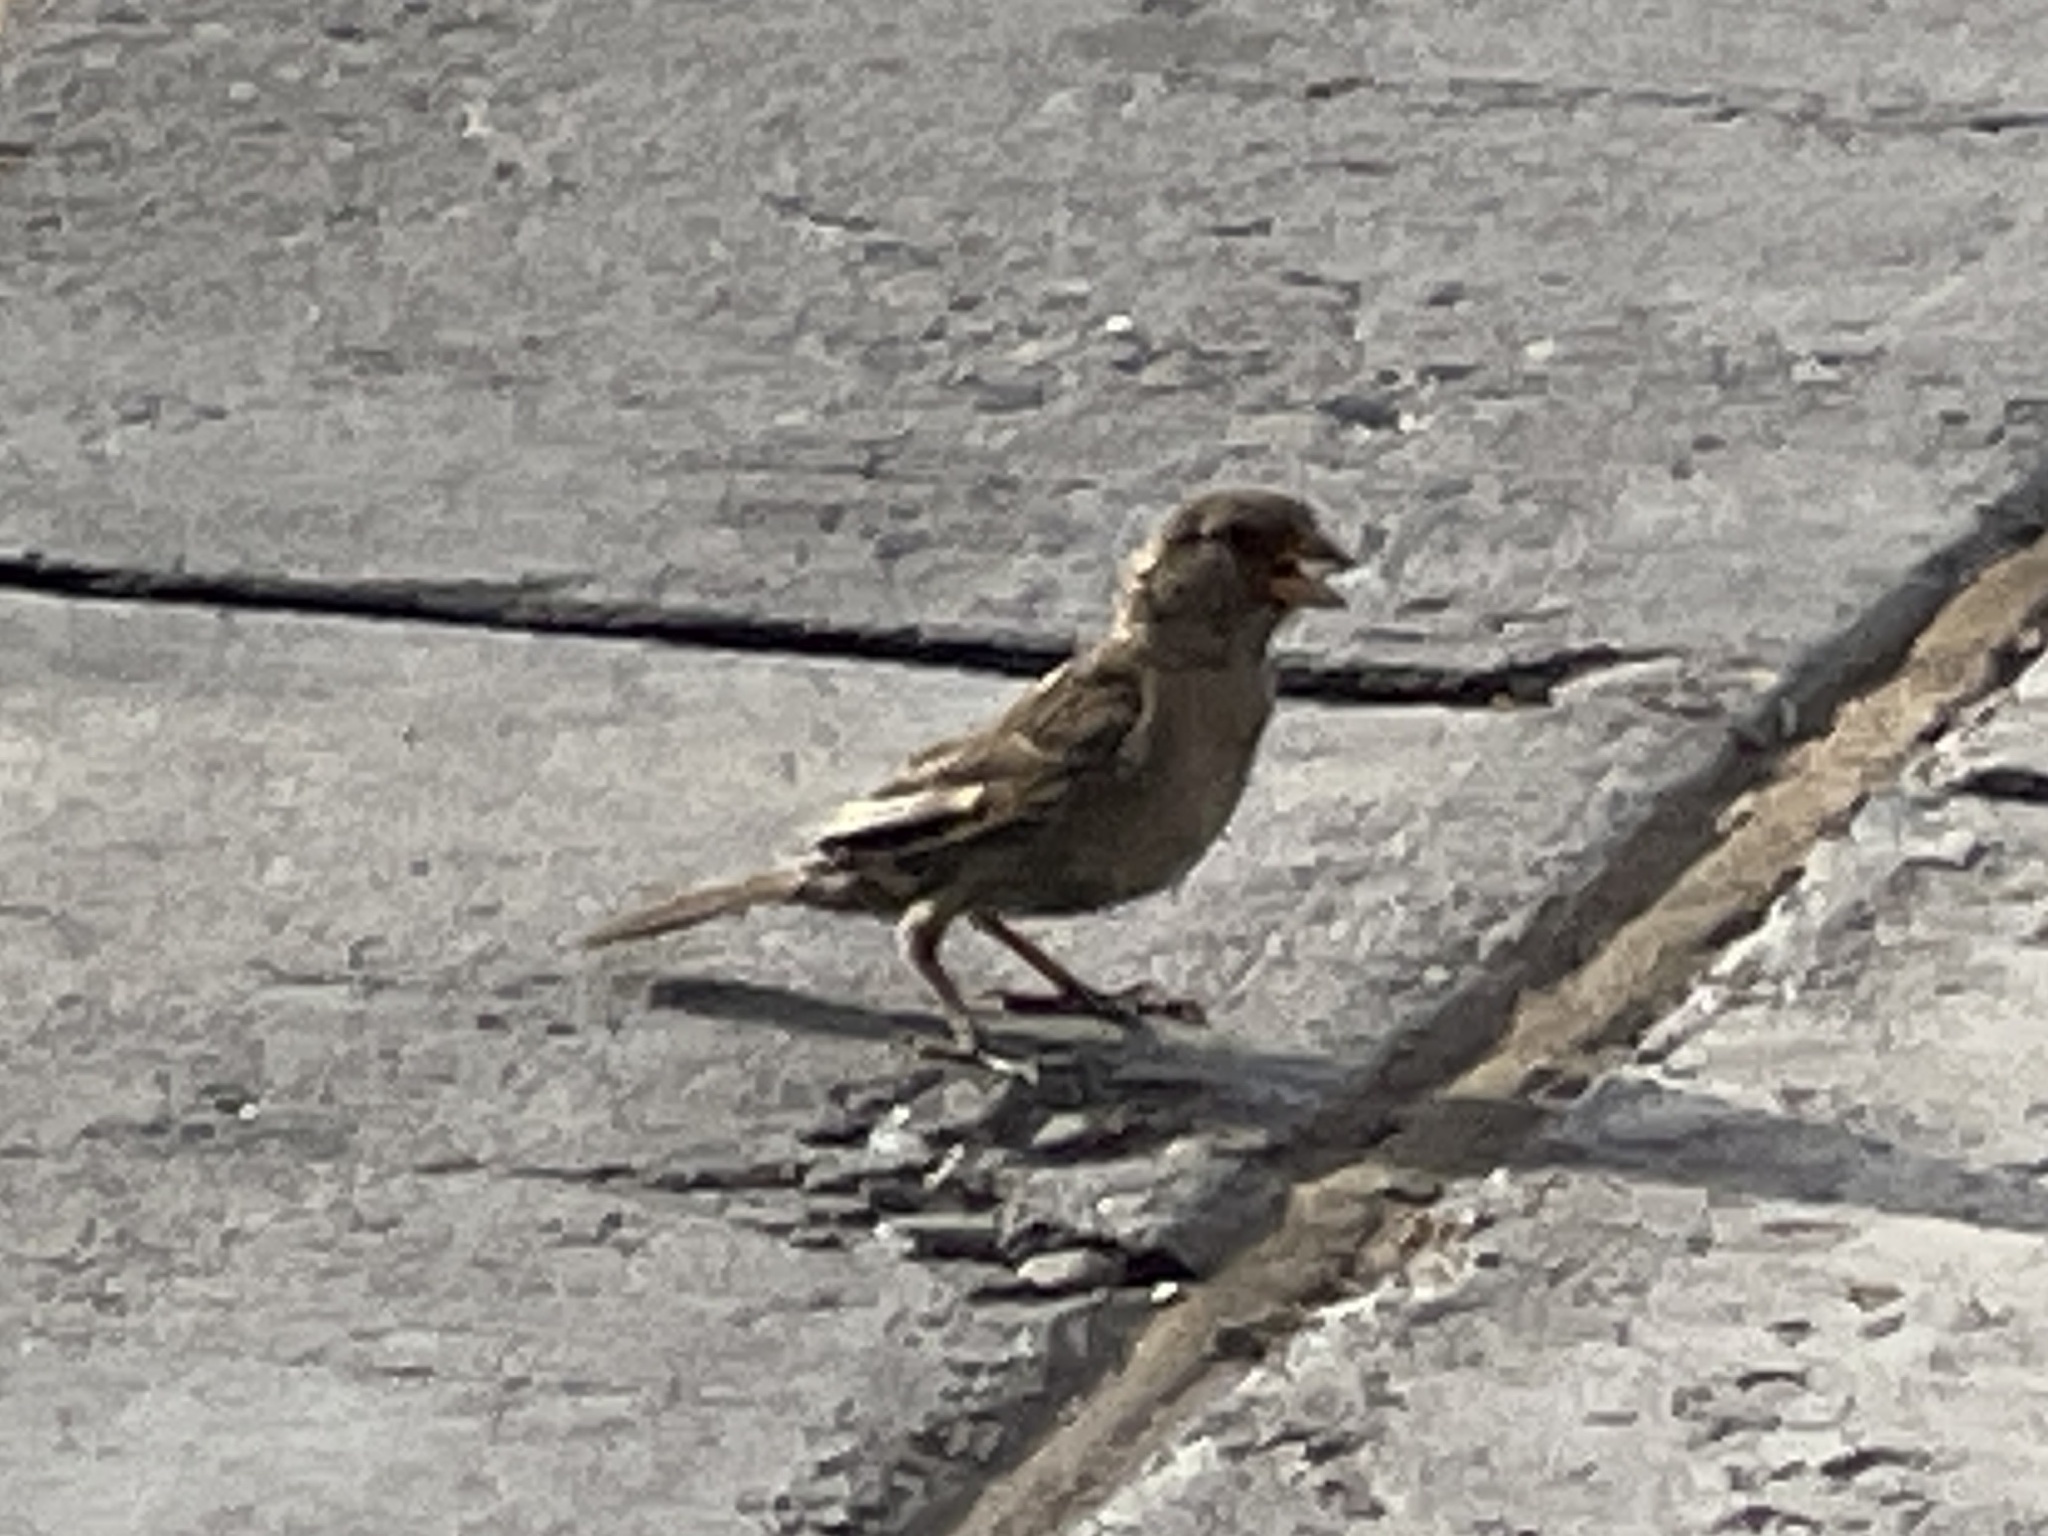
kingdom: Animalia
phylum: Chordata
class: Aves
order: Passeriformes
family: Passeridae
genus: Passer
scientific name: Passer domesticus
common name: House sparrow
